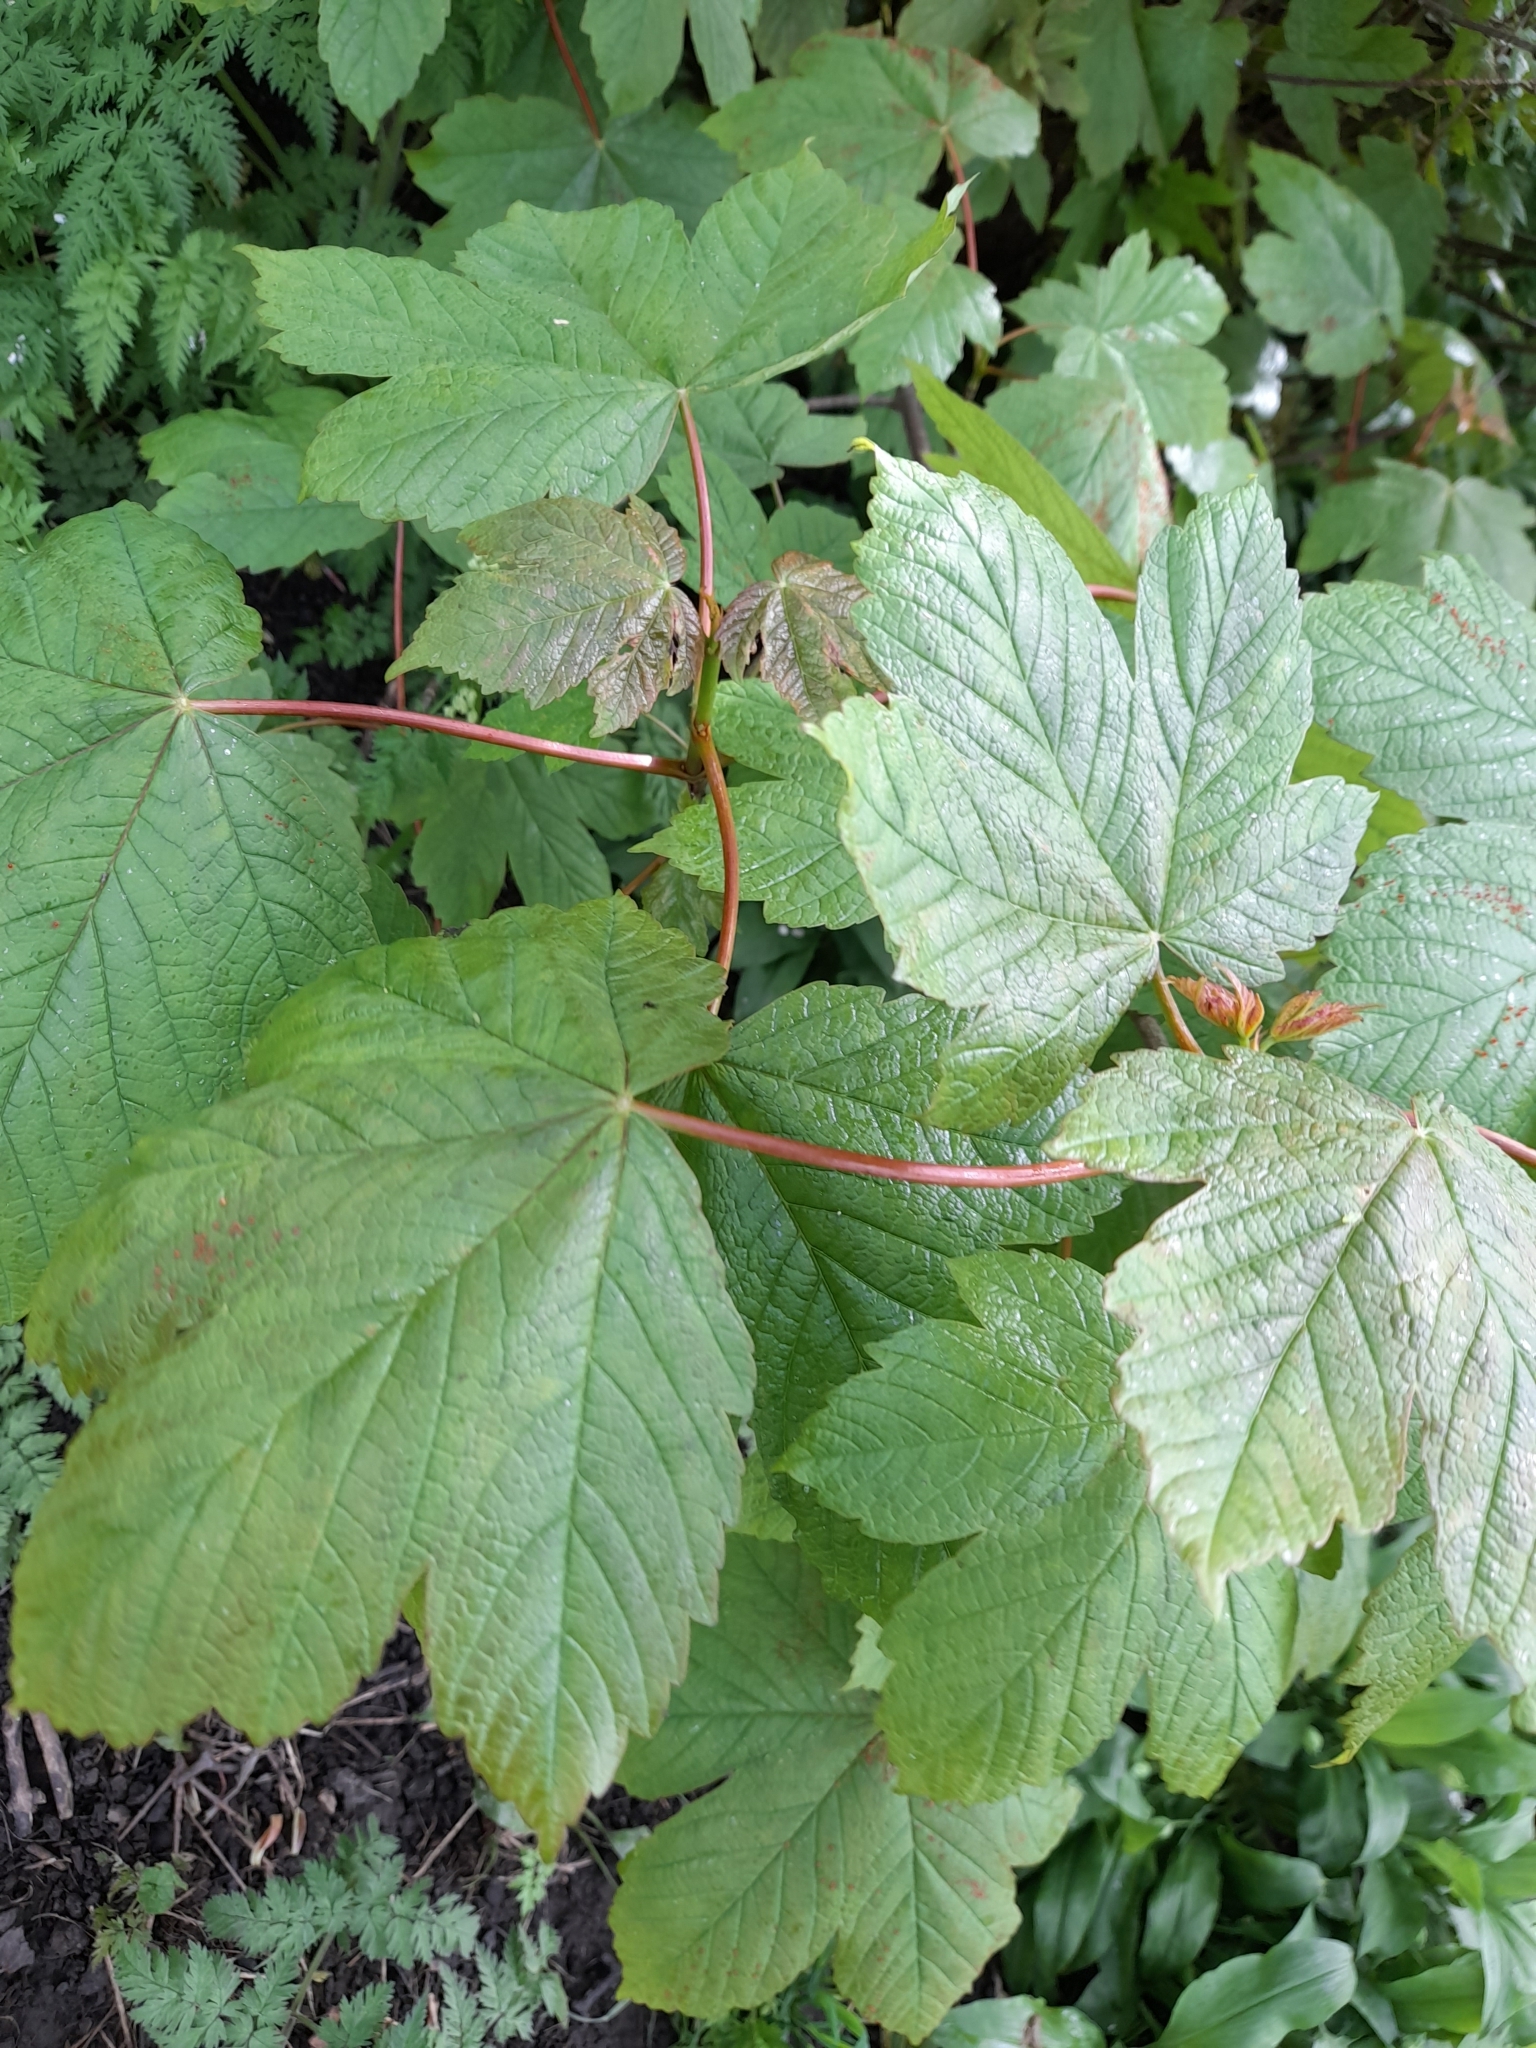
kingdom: Plantae
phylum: Tracheophyta
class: Magnoliopsida
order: Sapindales
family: Sapindaceae
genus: Acer
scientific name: Acer pseudoplatanus
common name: Sycamore
